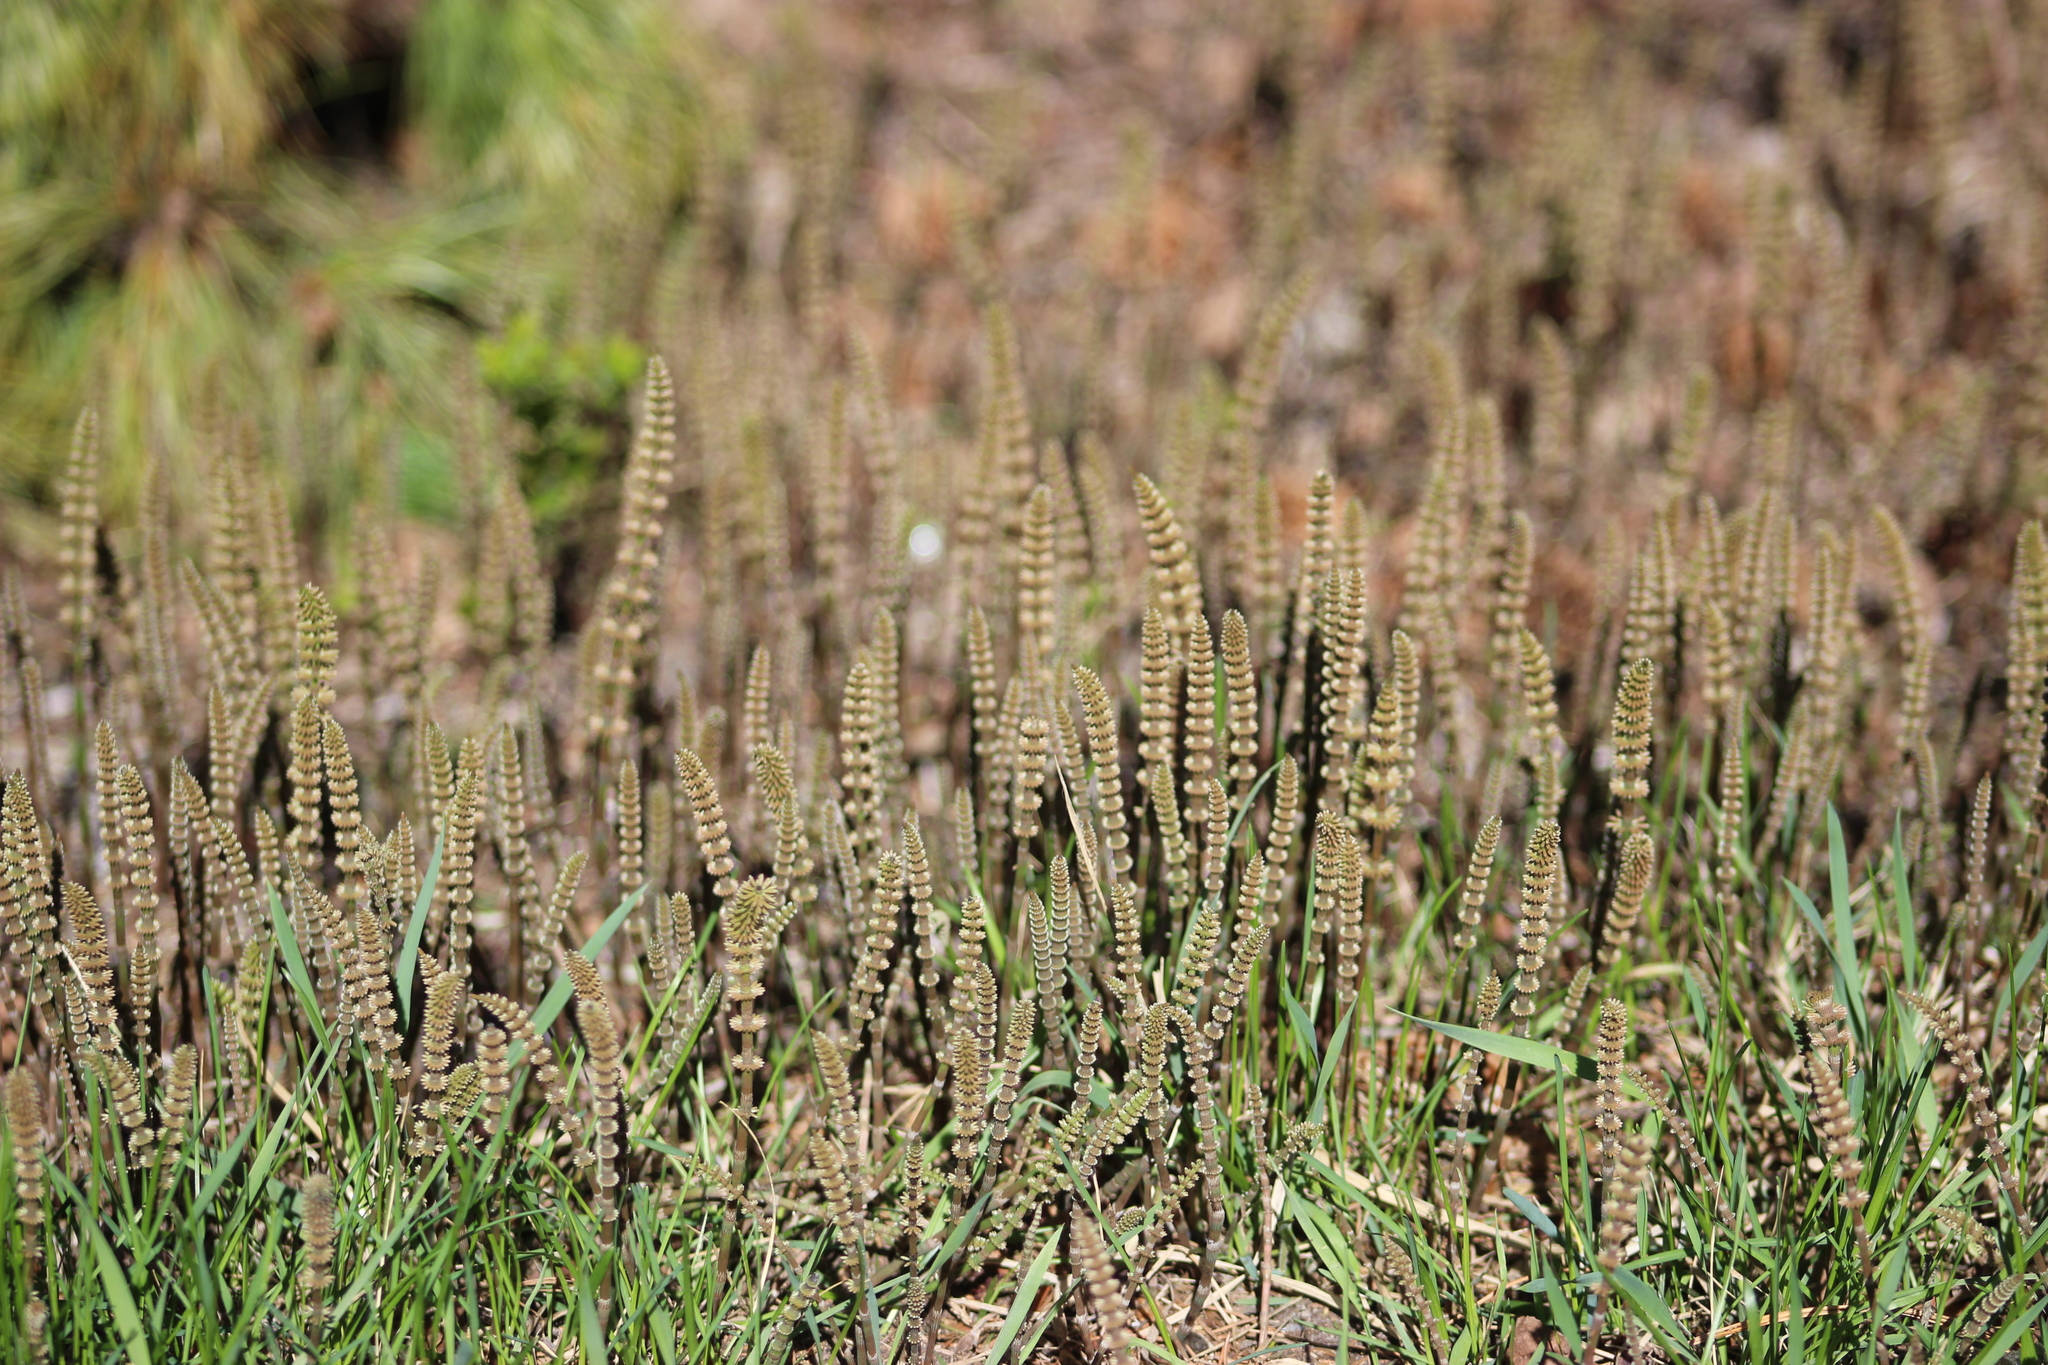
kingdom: Plantae
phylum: Tracheophyta
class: Polypodiopsida
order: Equisetales
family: Equisetaceae
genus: Equisetum
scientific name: Equisetum pratense
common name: Meadow horsetail
